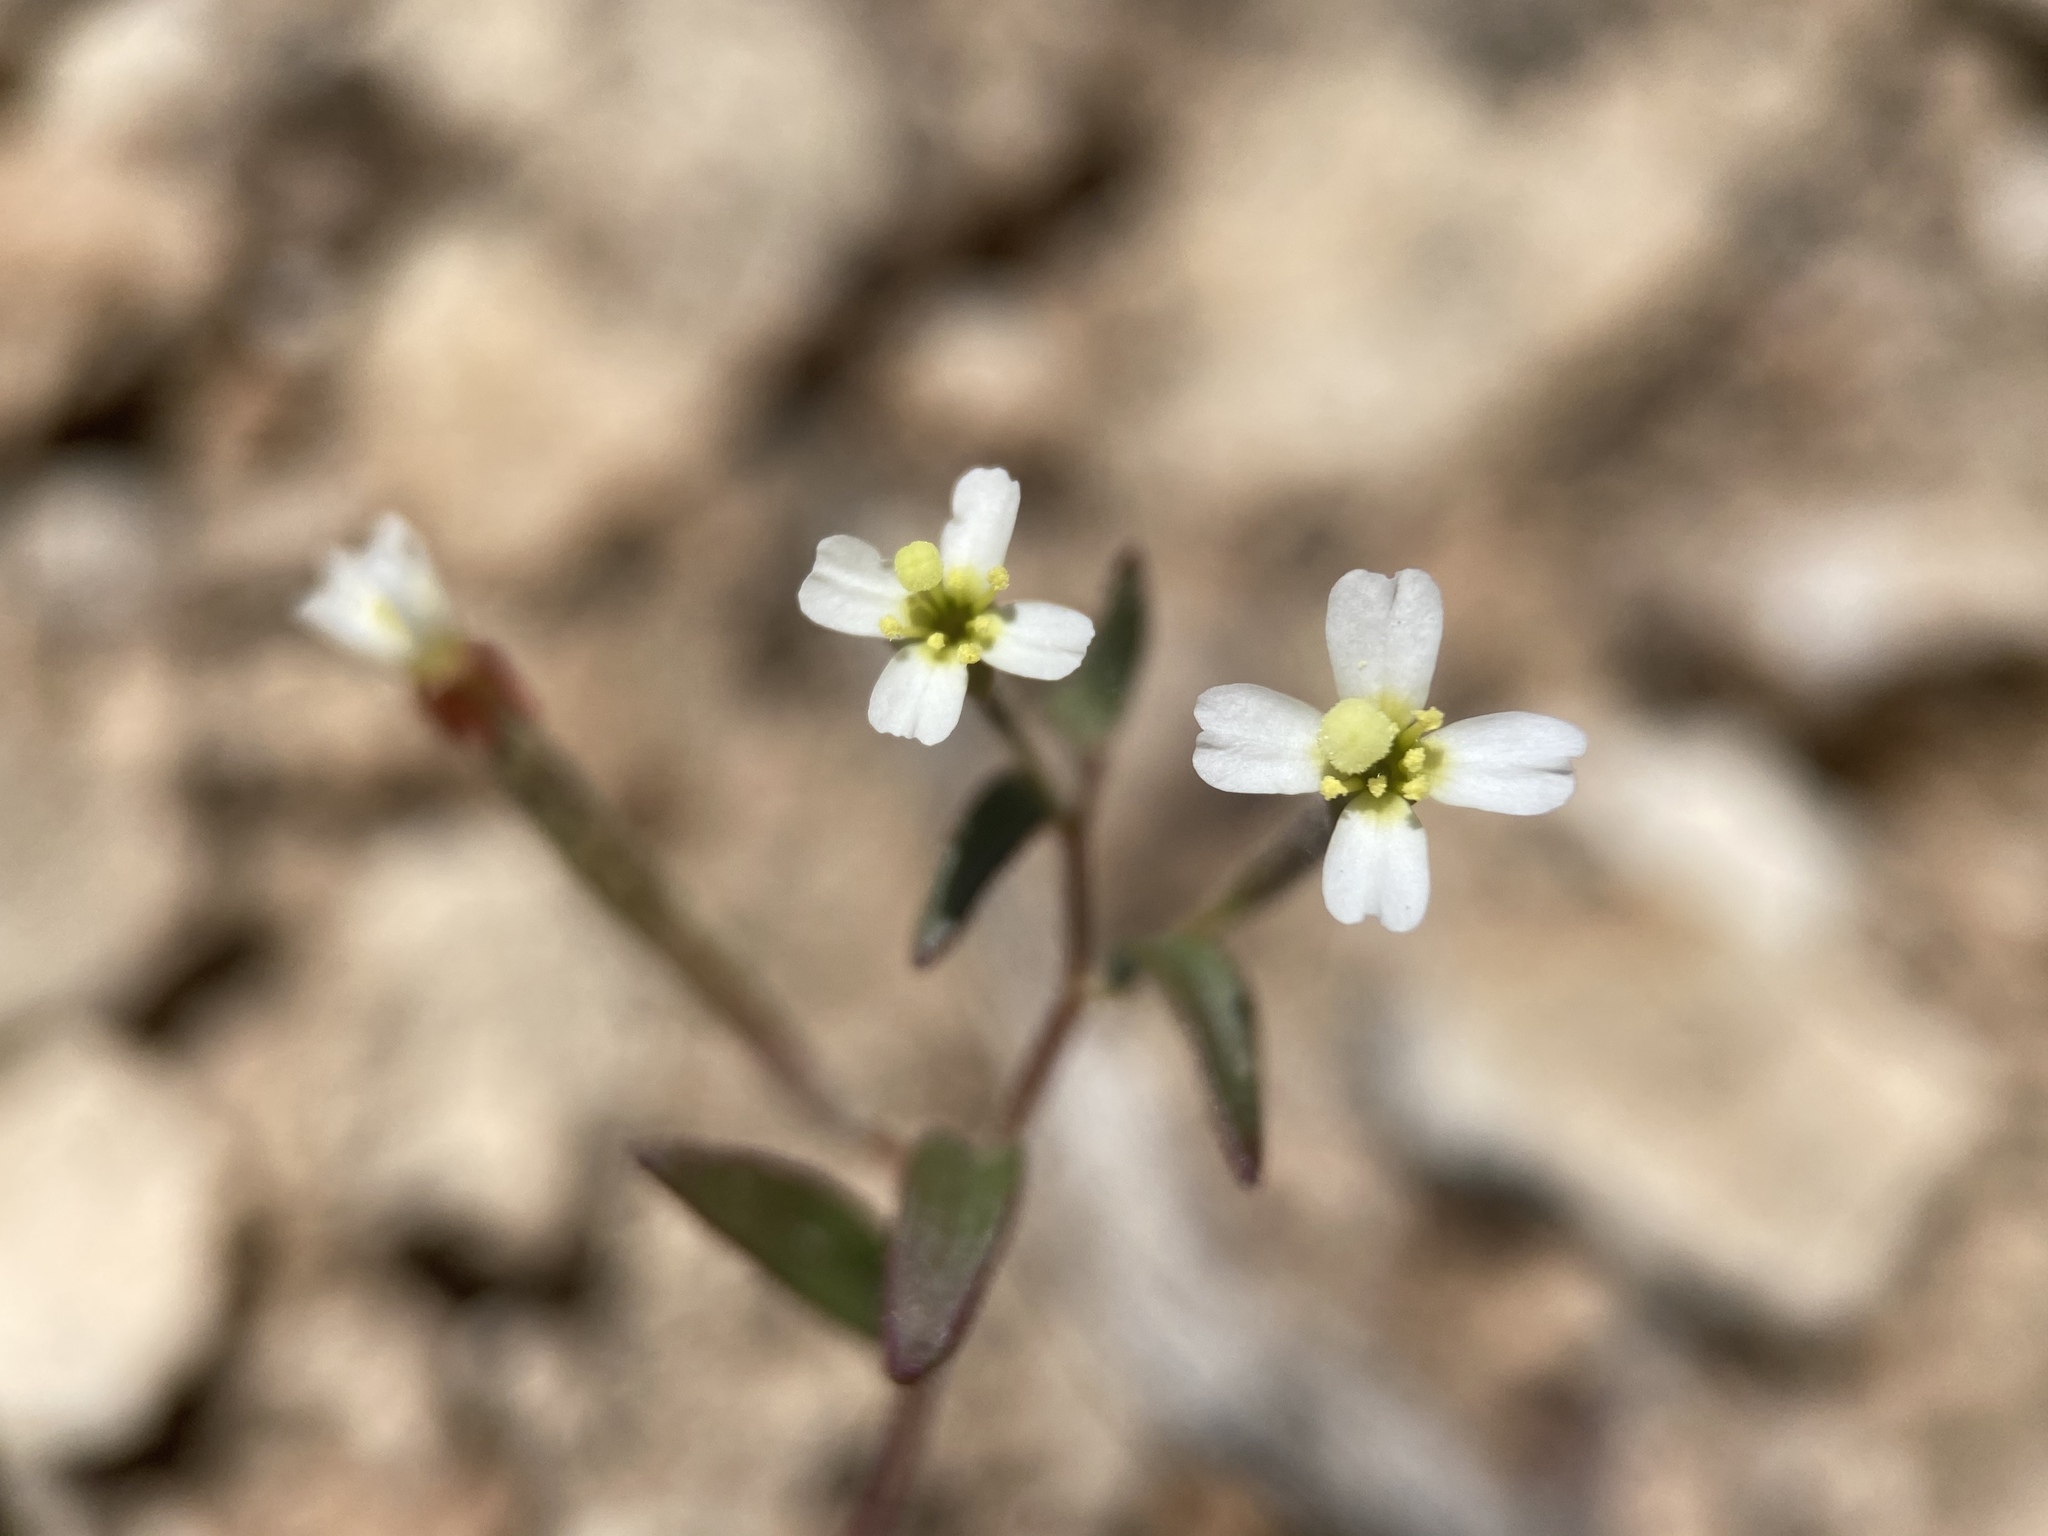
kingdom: Plantae
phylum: Tracheophyta
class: Magnoliopsida
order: Myrtales
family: Onagraceae
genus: Chylismiella
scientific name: Chylismiella pterosperma
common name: Wingfruit suncup
